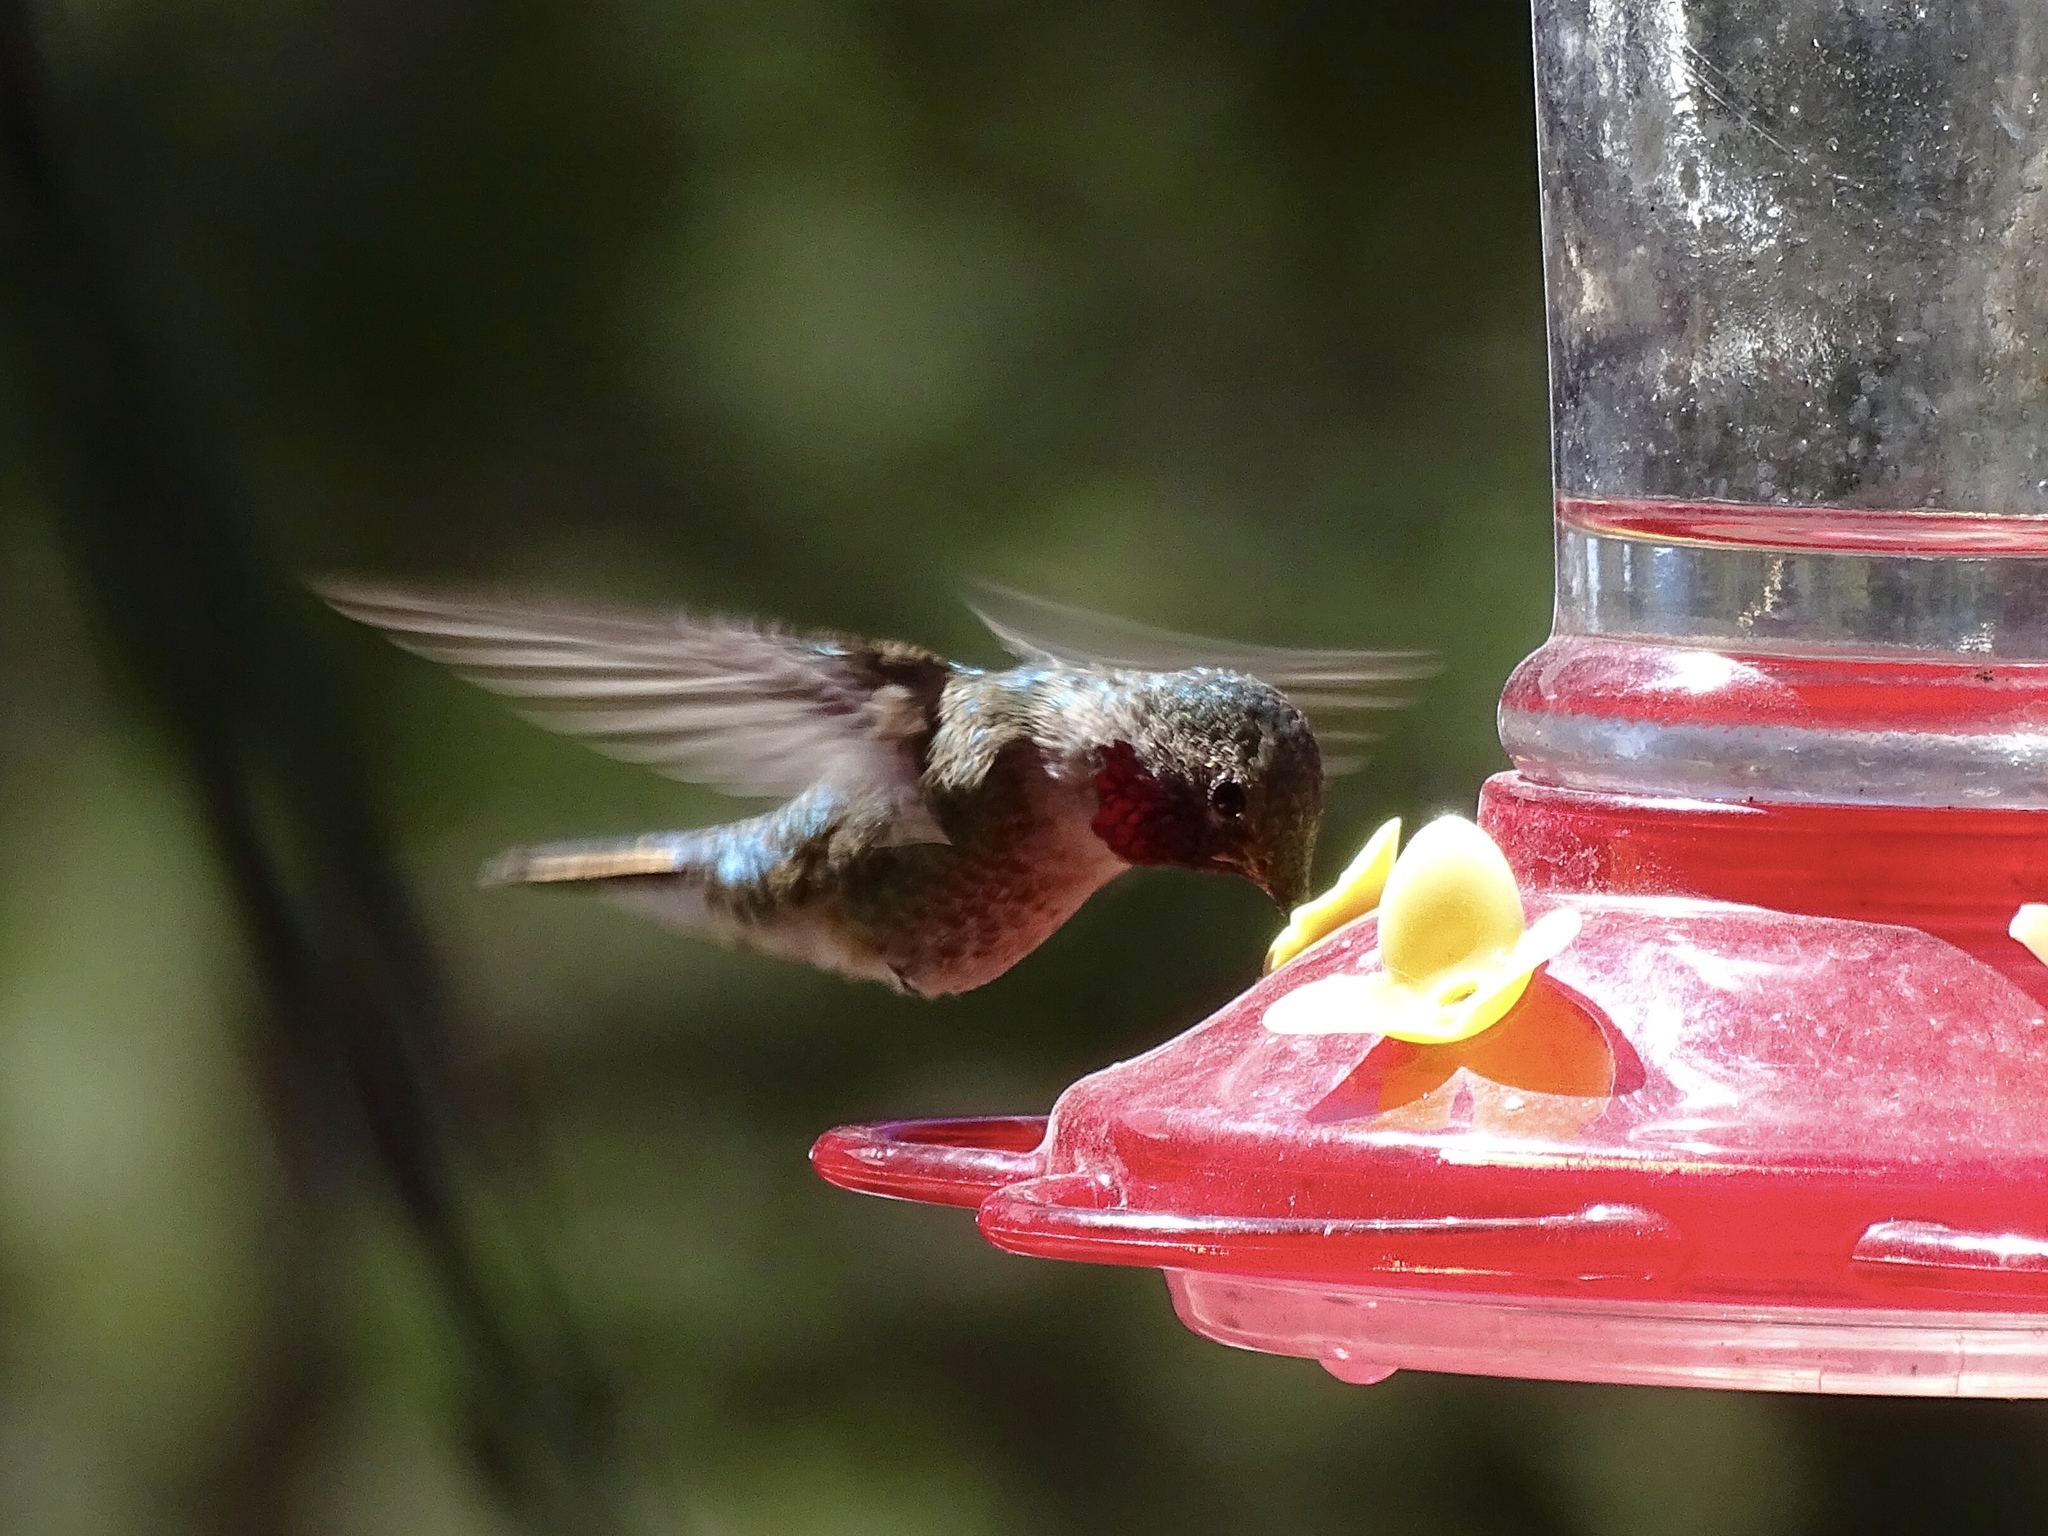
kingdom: Animalia
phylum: Chordata
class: Aves
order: Apodiformes
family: Trochilidae
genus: Selasphorus
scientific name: Selasphorus platycercus
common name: Broad-tailed hummingbird
